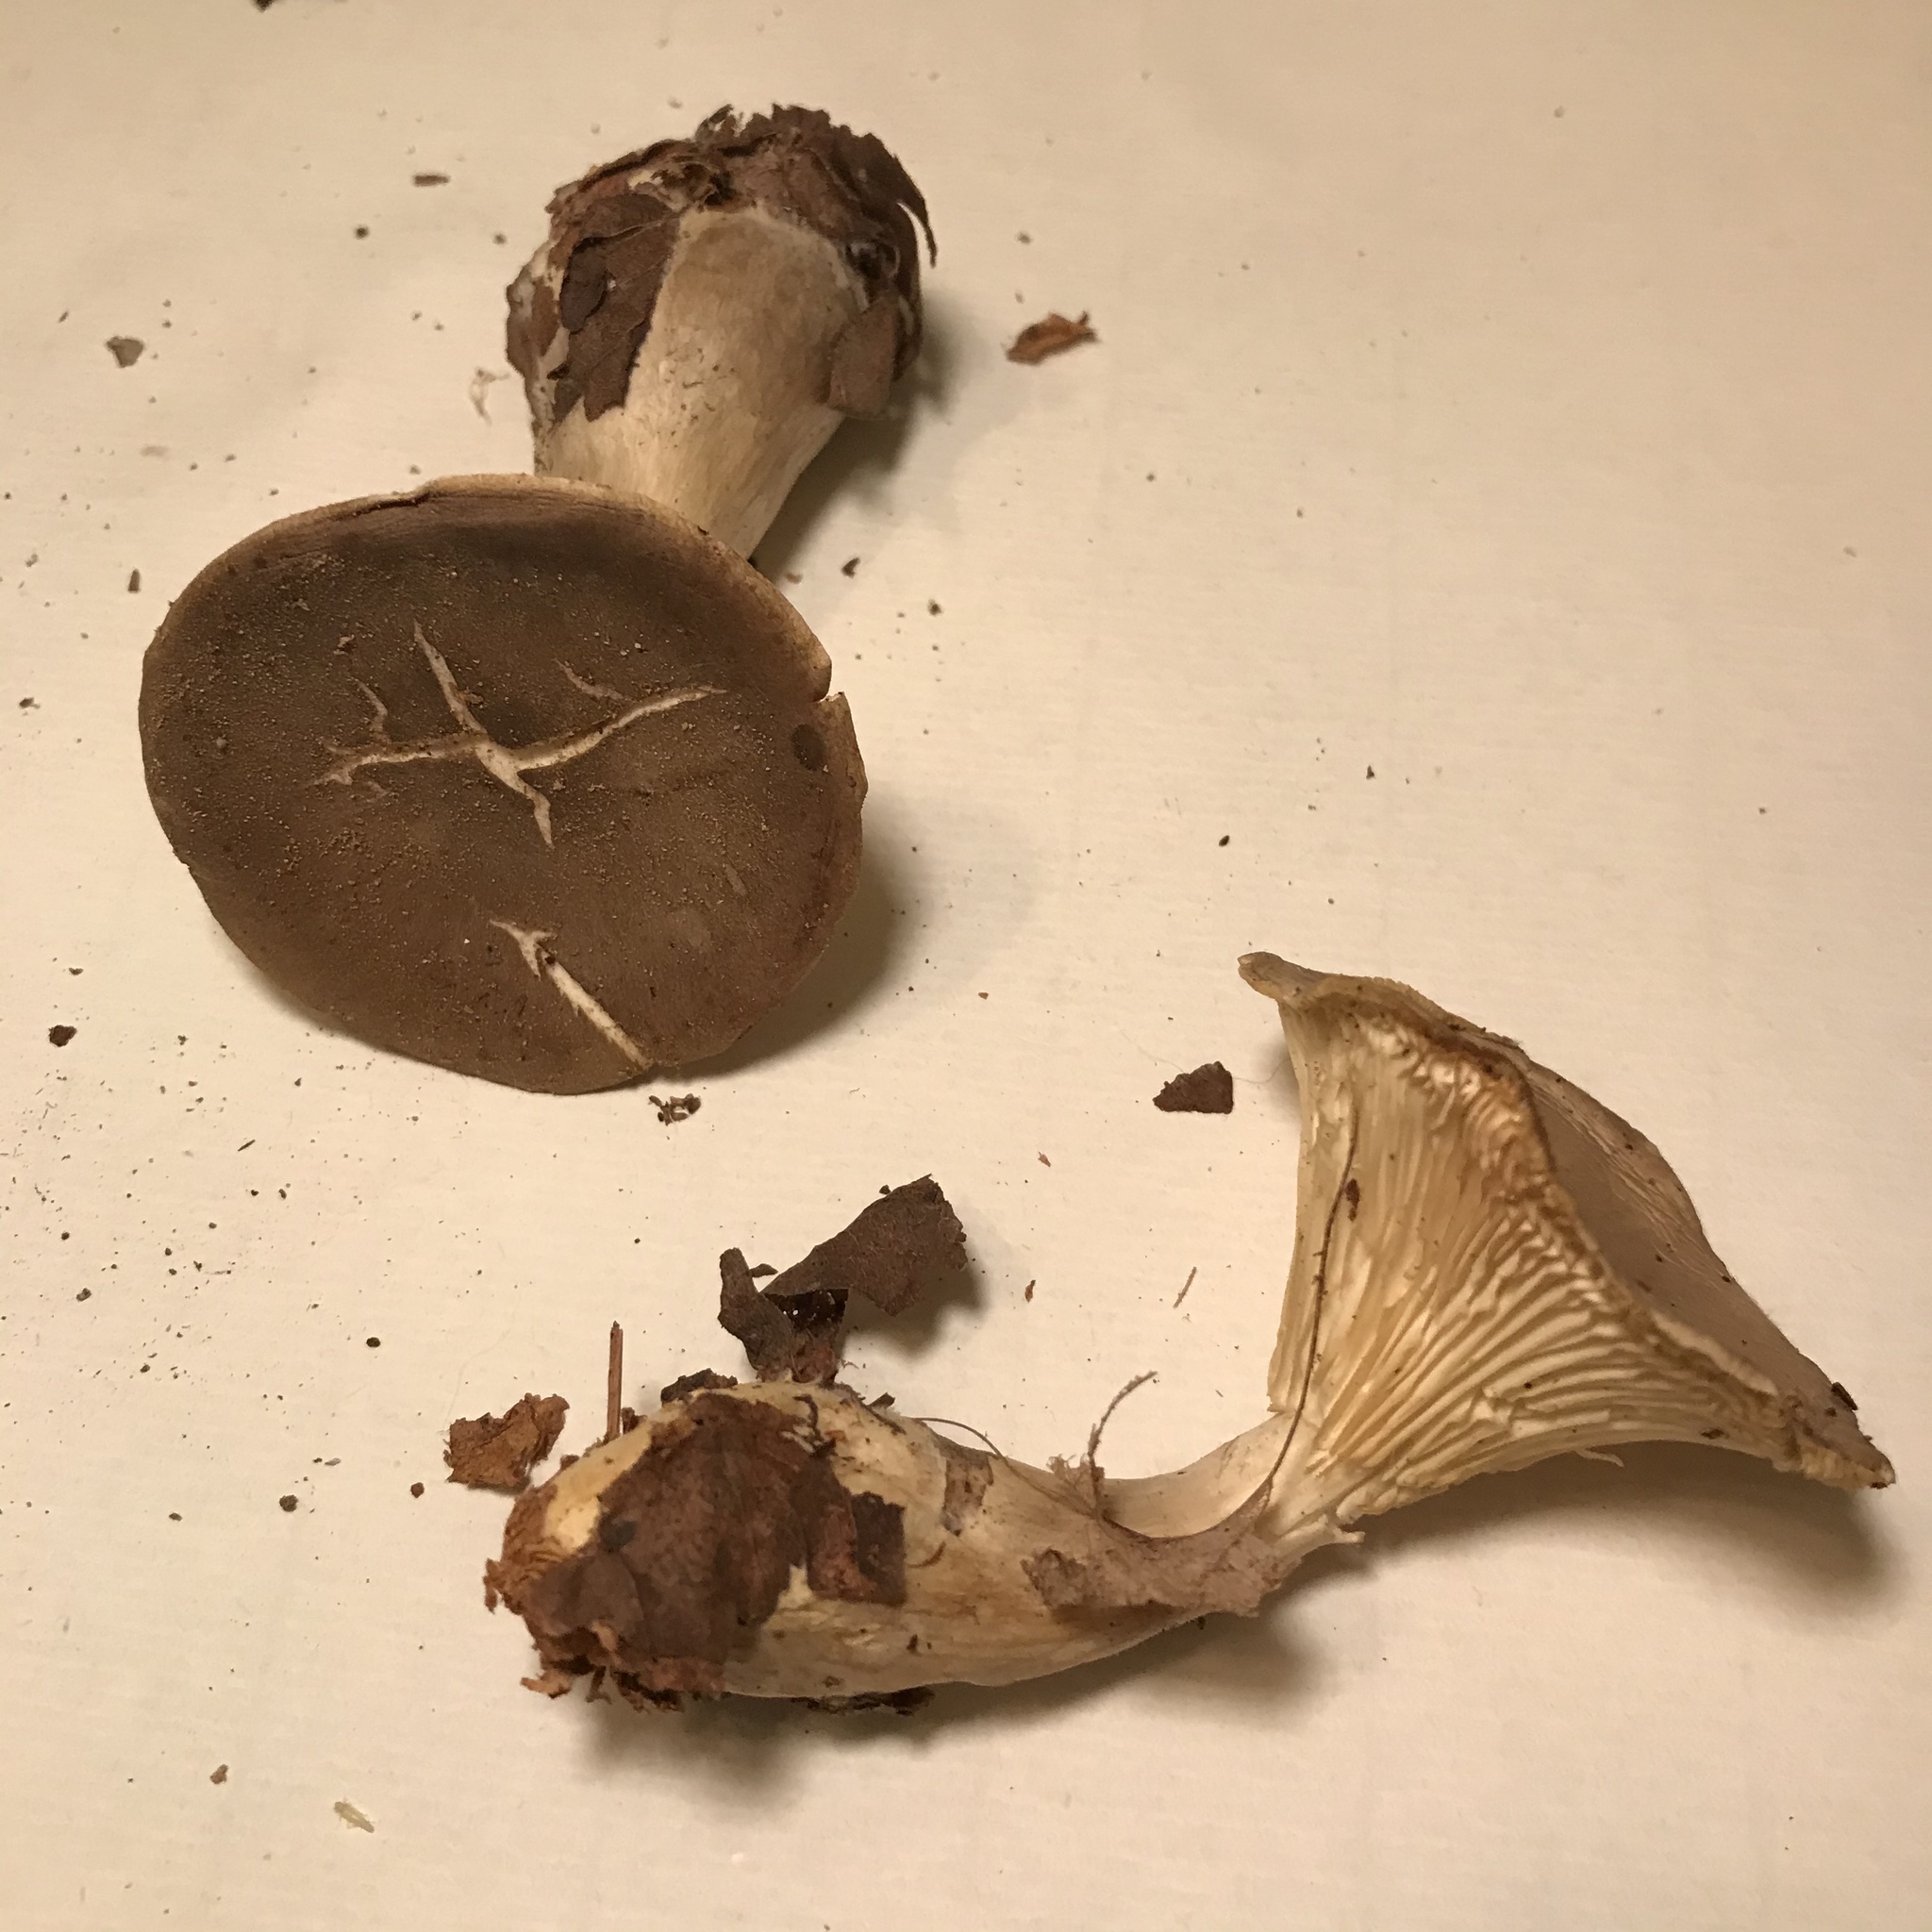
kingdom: Fungi
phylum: Basidiomycota
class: Agaricomycetes
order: Agaricales
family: Hygrophoraceae
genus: Ampulloclitocybe
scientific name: Ampulloclitocybe clavipes
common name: Club foot
